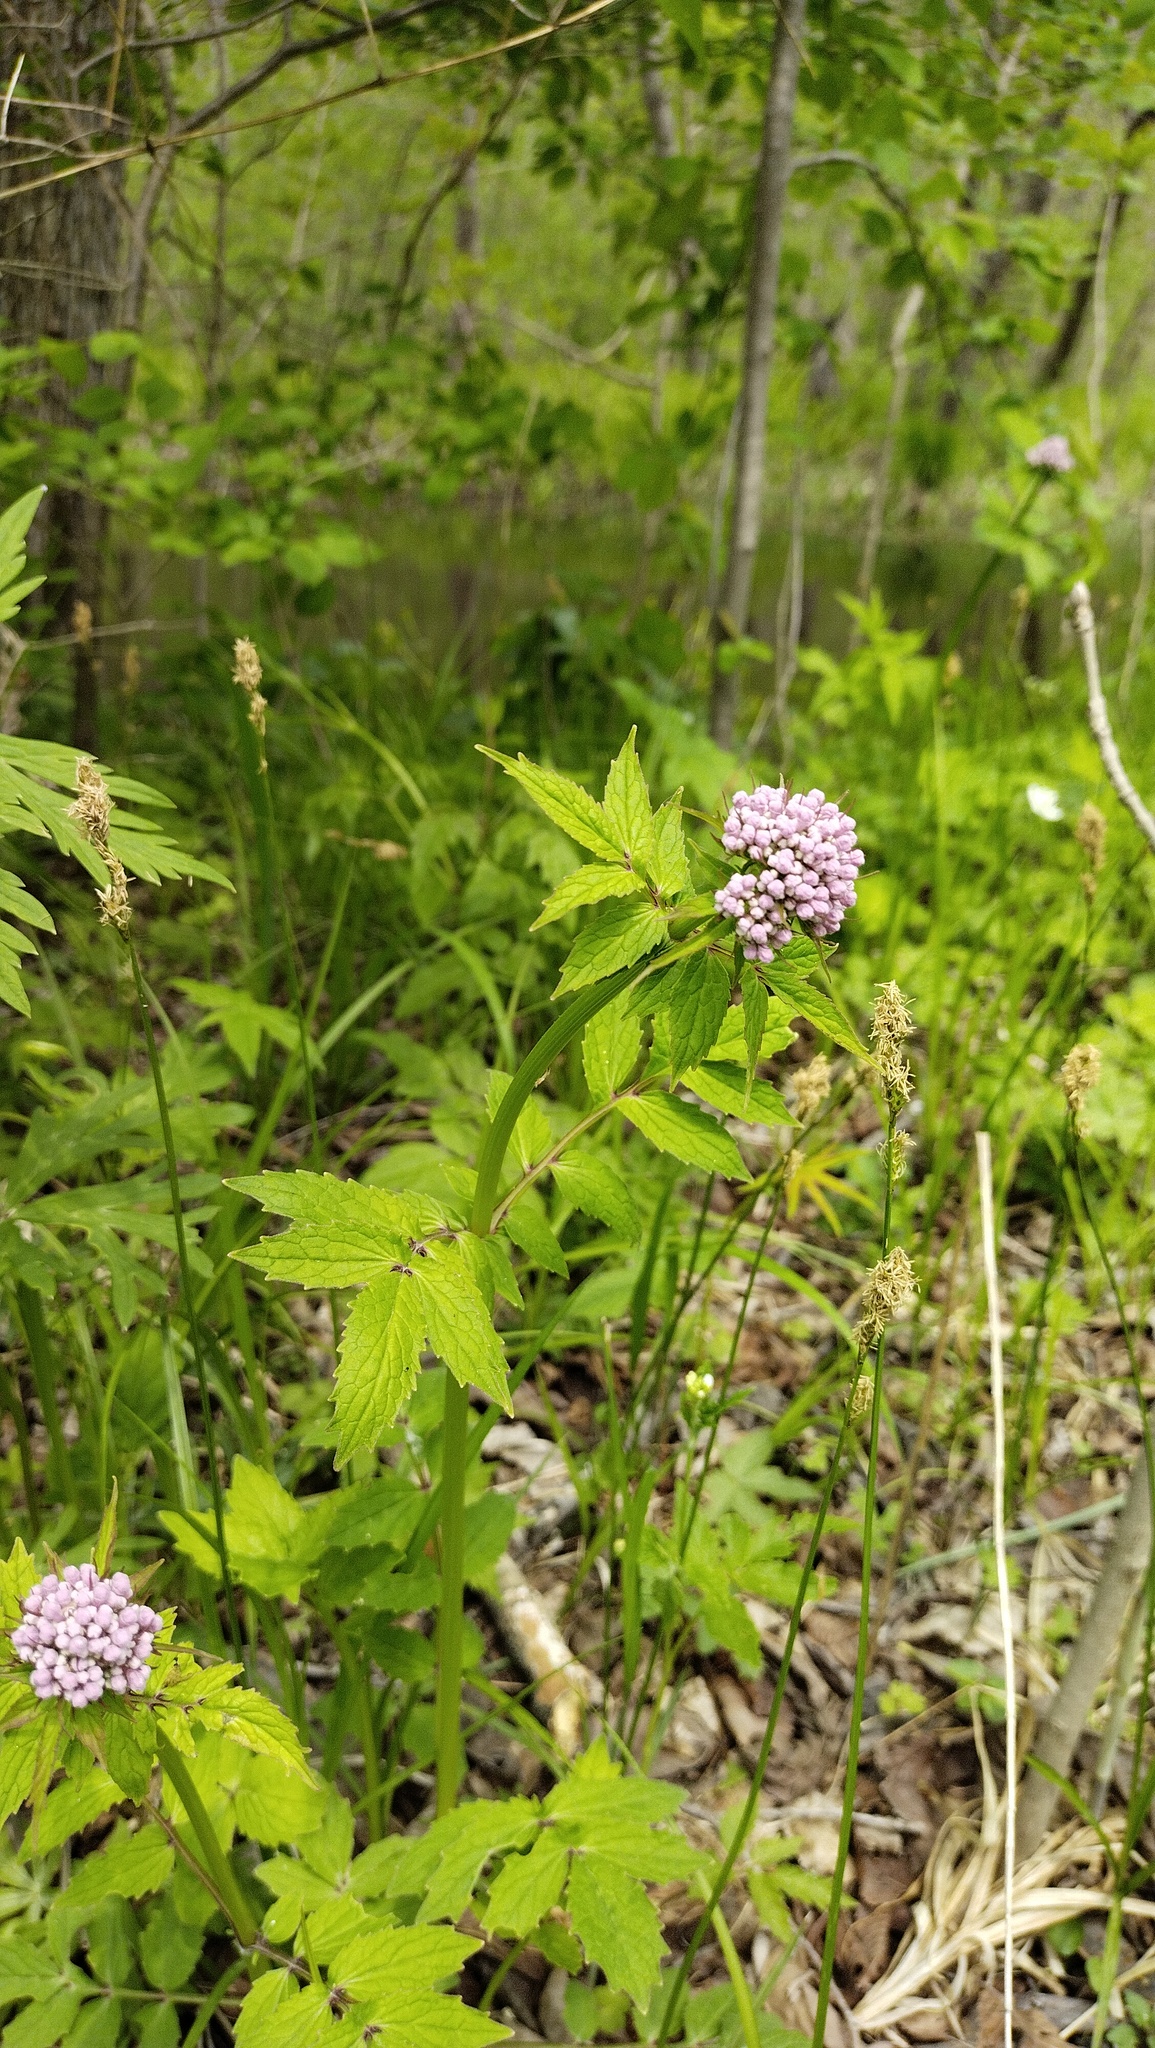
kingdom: Plantae
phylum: Tracheophyta
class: Magnoliopsida
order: Dipsacales
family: Caprifoliaceae
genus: Valeriana
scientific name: Valeriana fauriei
